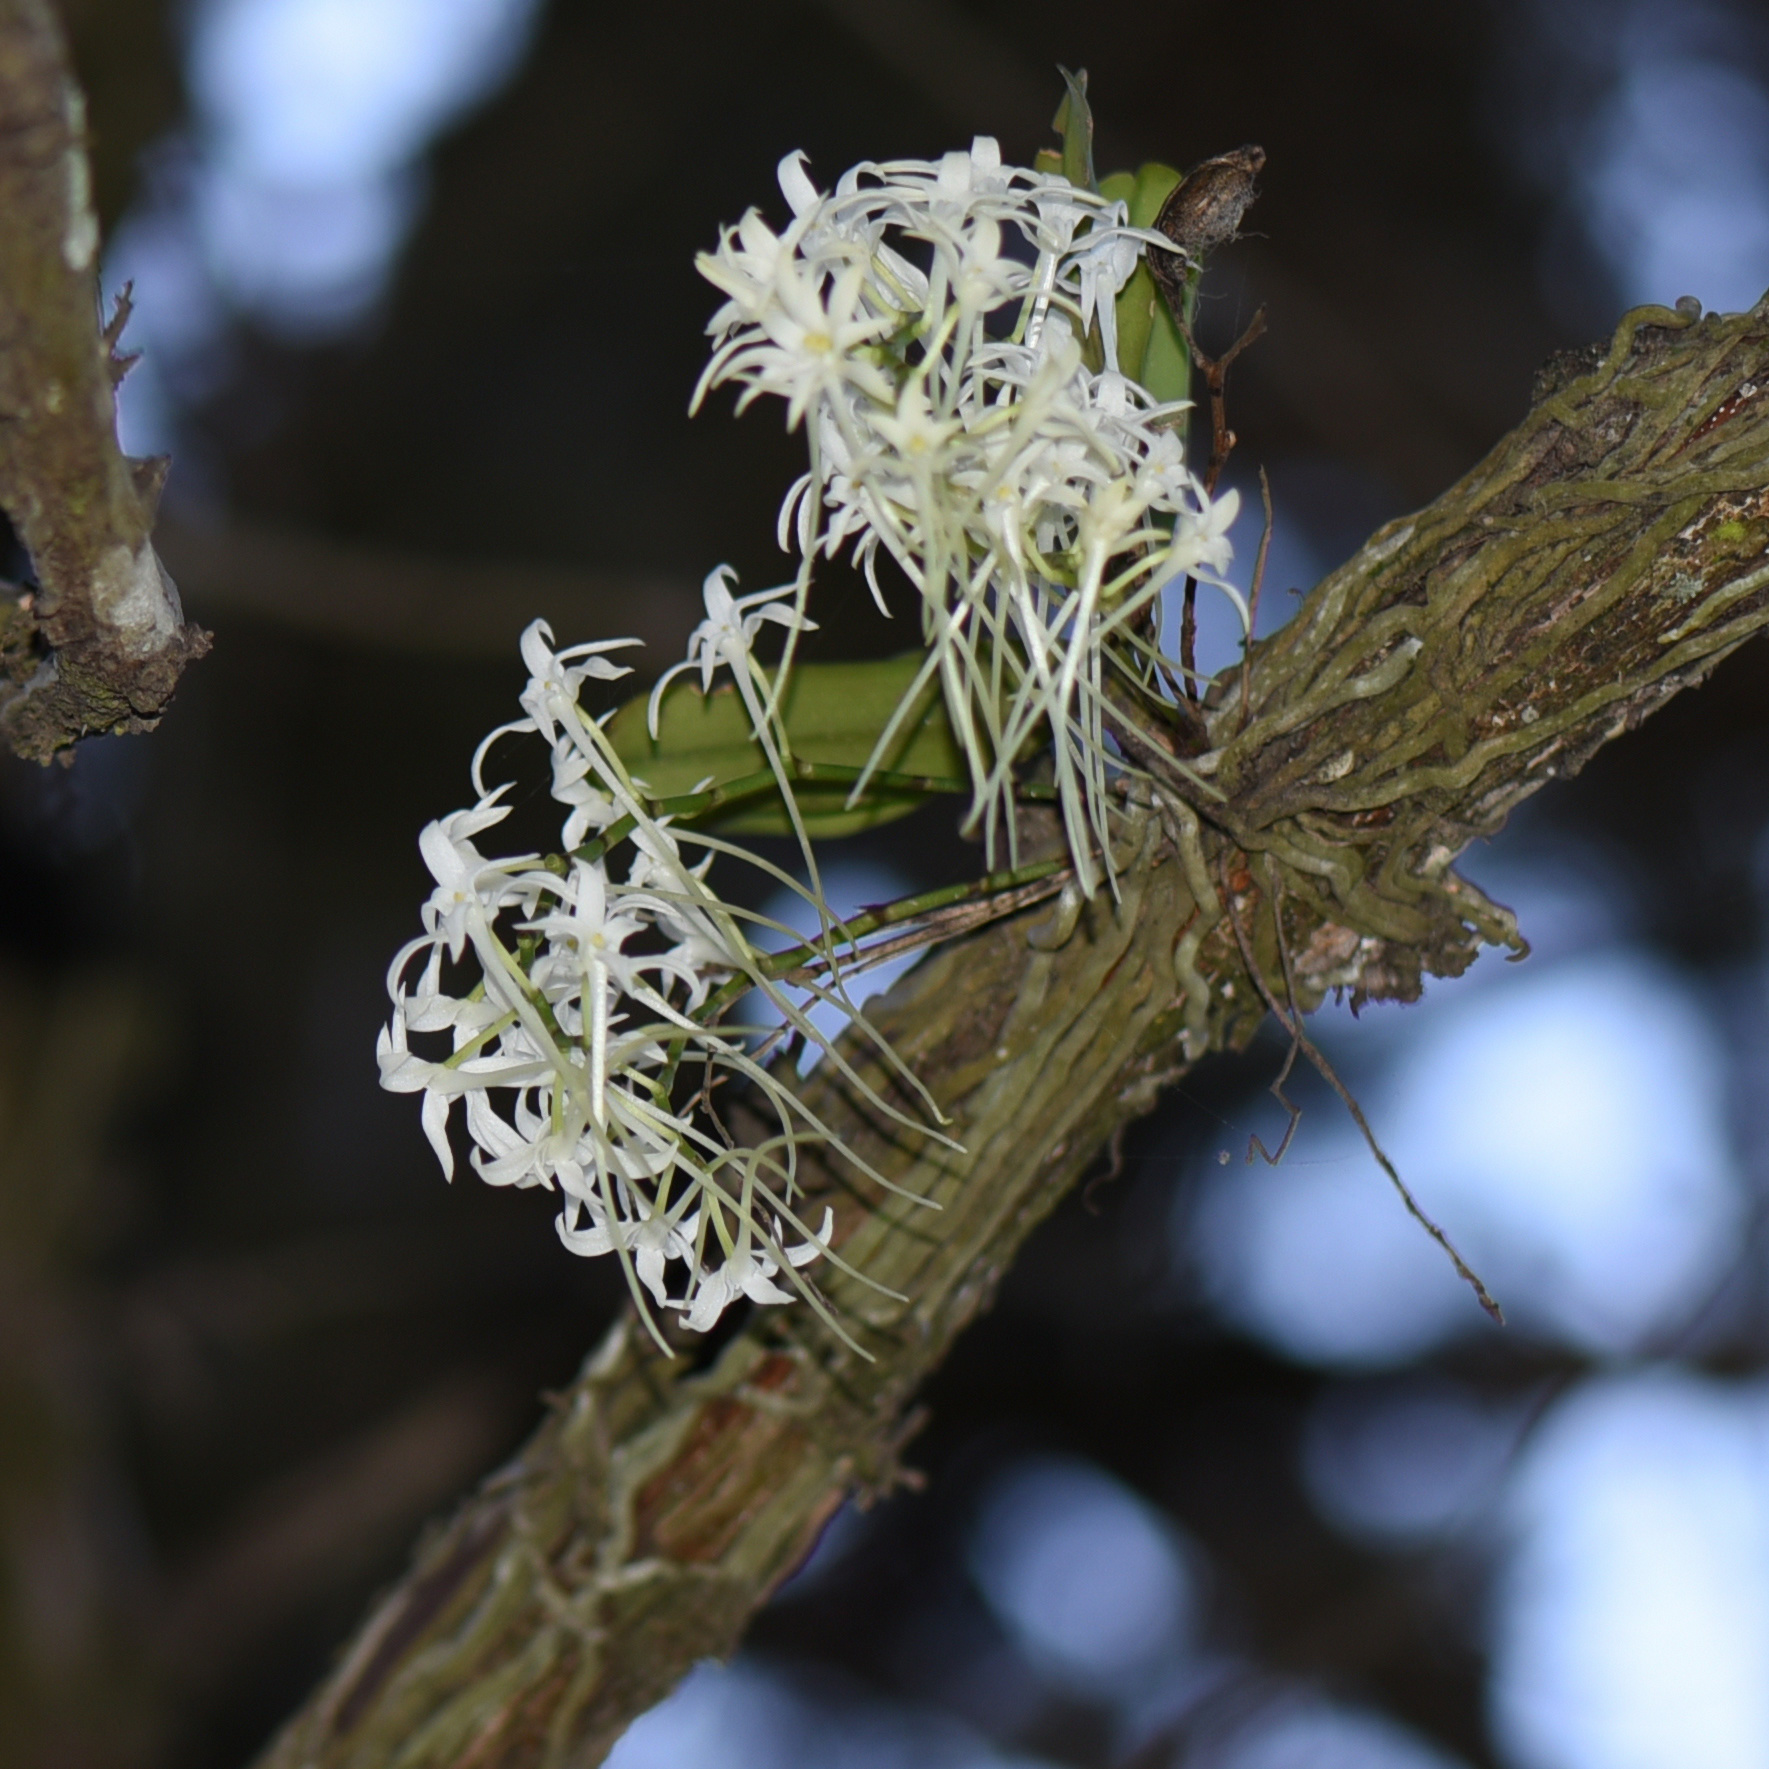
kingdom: Plantae
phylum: Tracheophyta
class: Liliopsida
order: Asparagales
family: Orchidaceae
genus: Mystacidium
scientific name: Mystacidium capense
